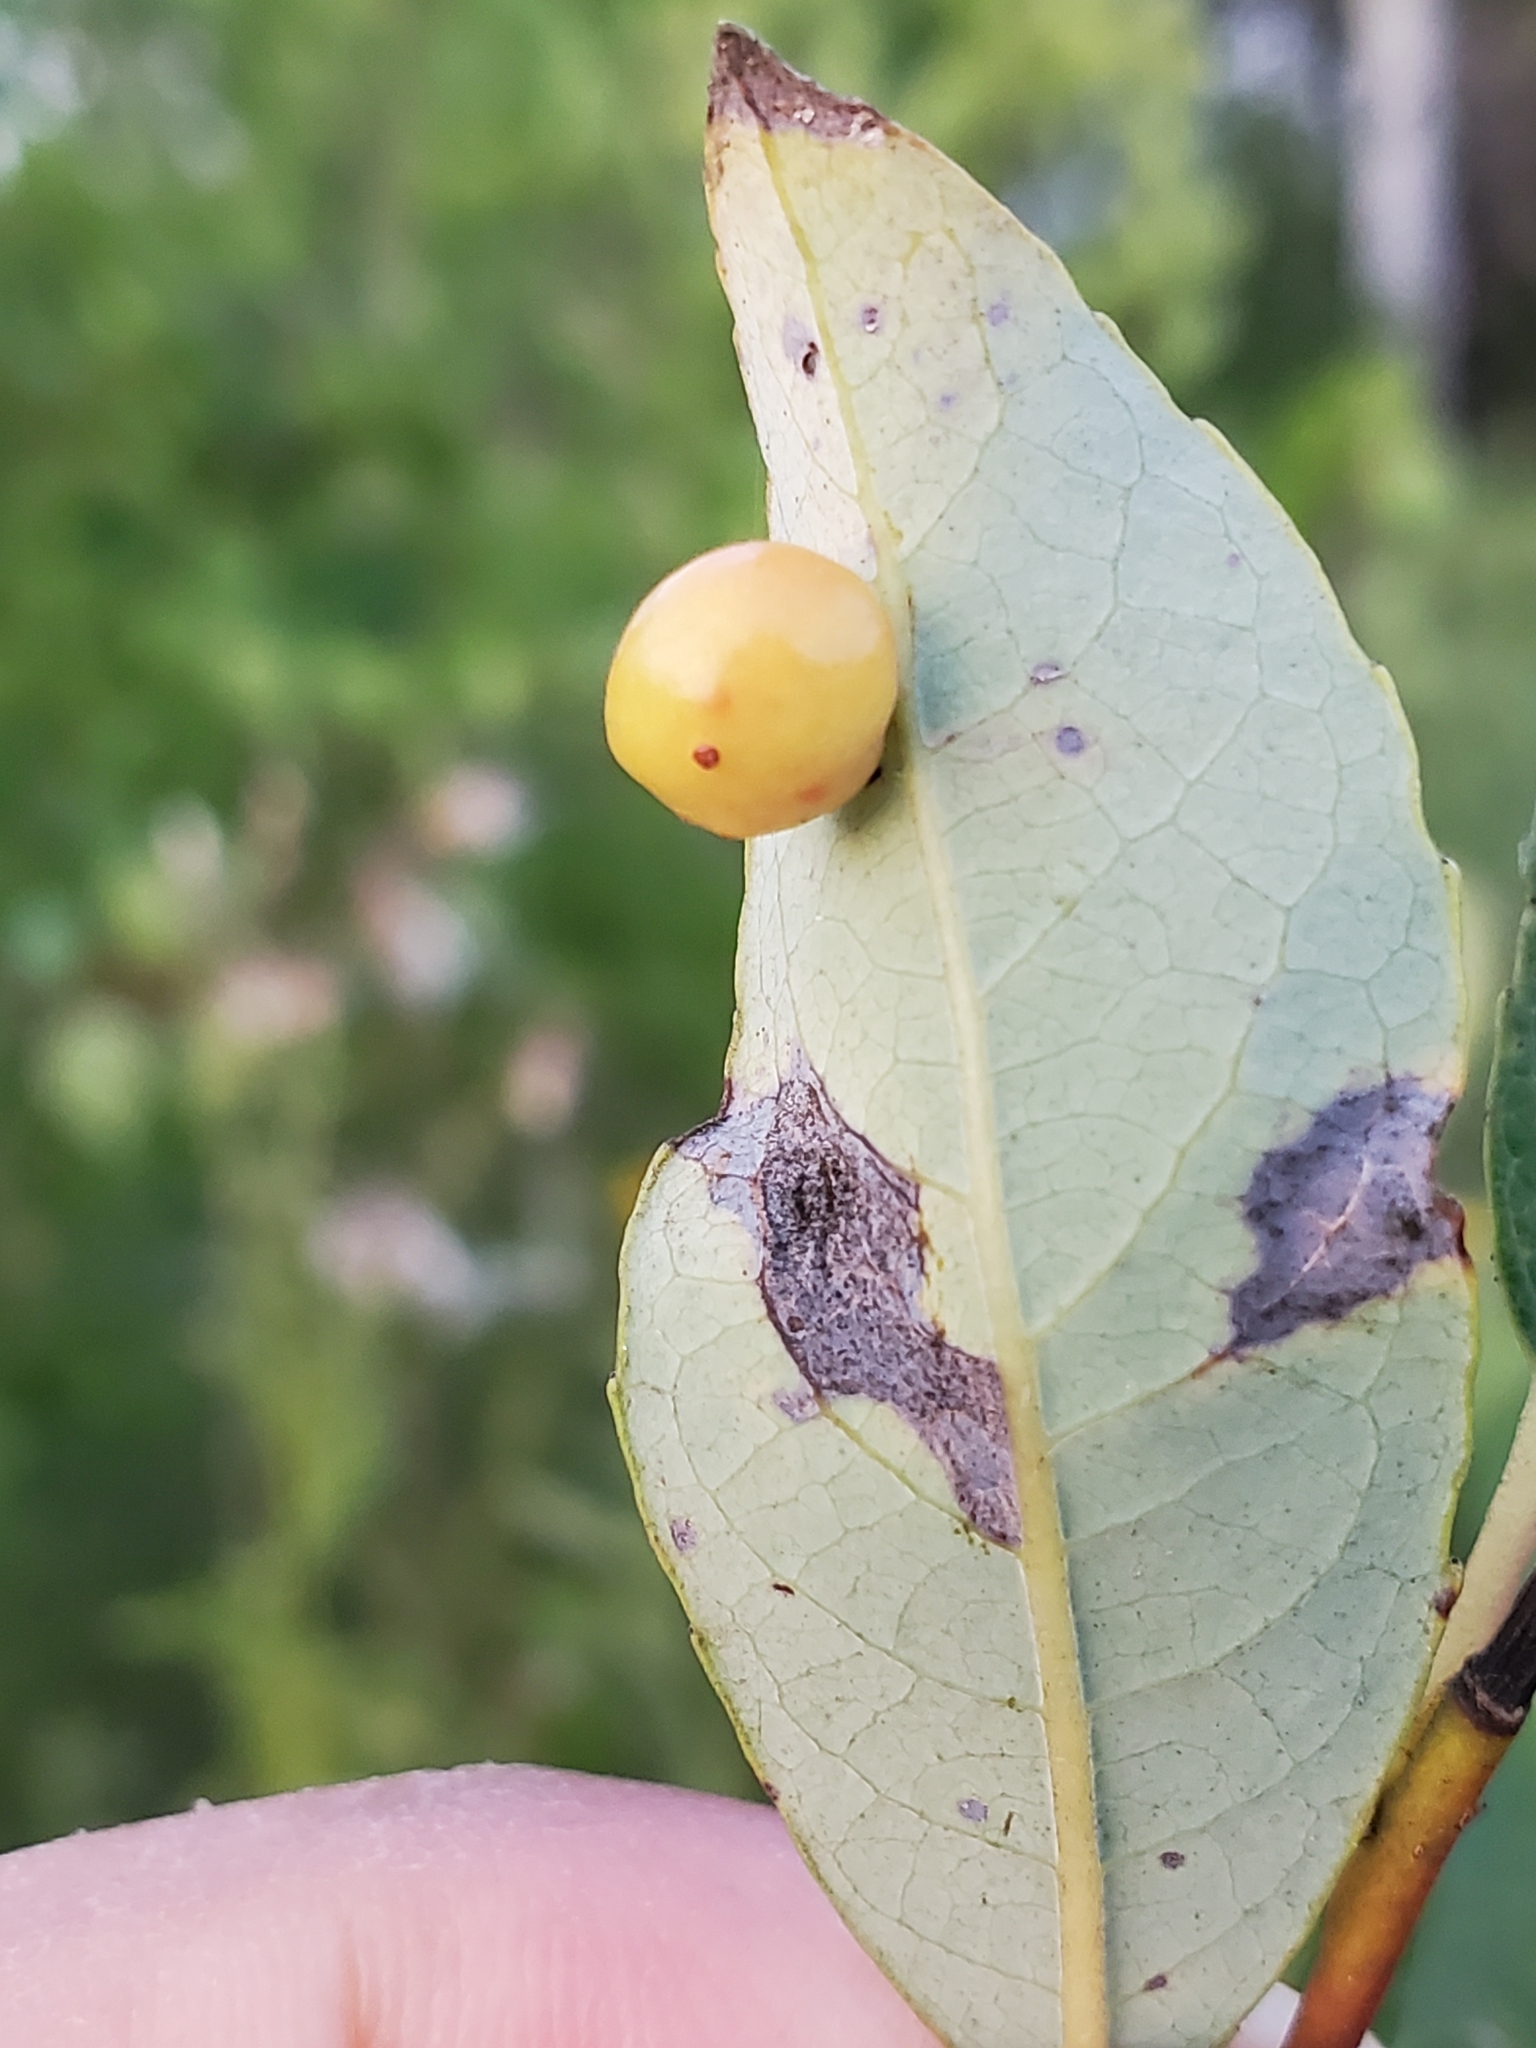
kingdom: Animalia
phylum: Arthropoda
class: Insecta
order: Hymenoptera
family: Tenthredinidae
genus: Euura
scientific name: Euura
